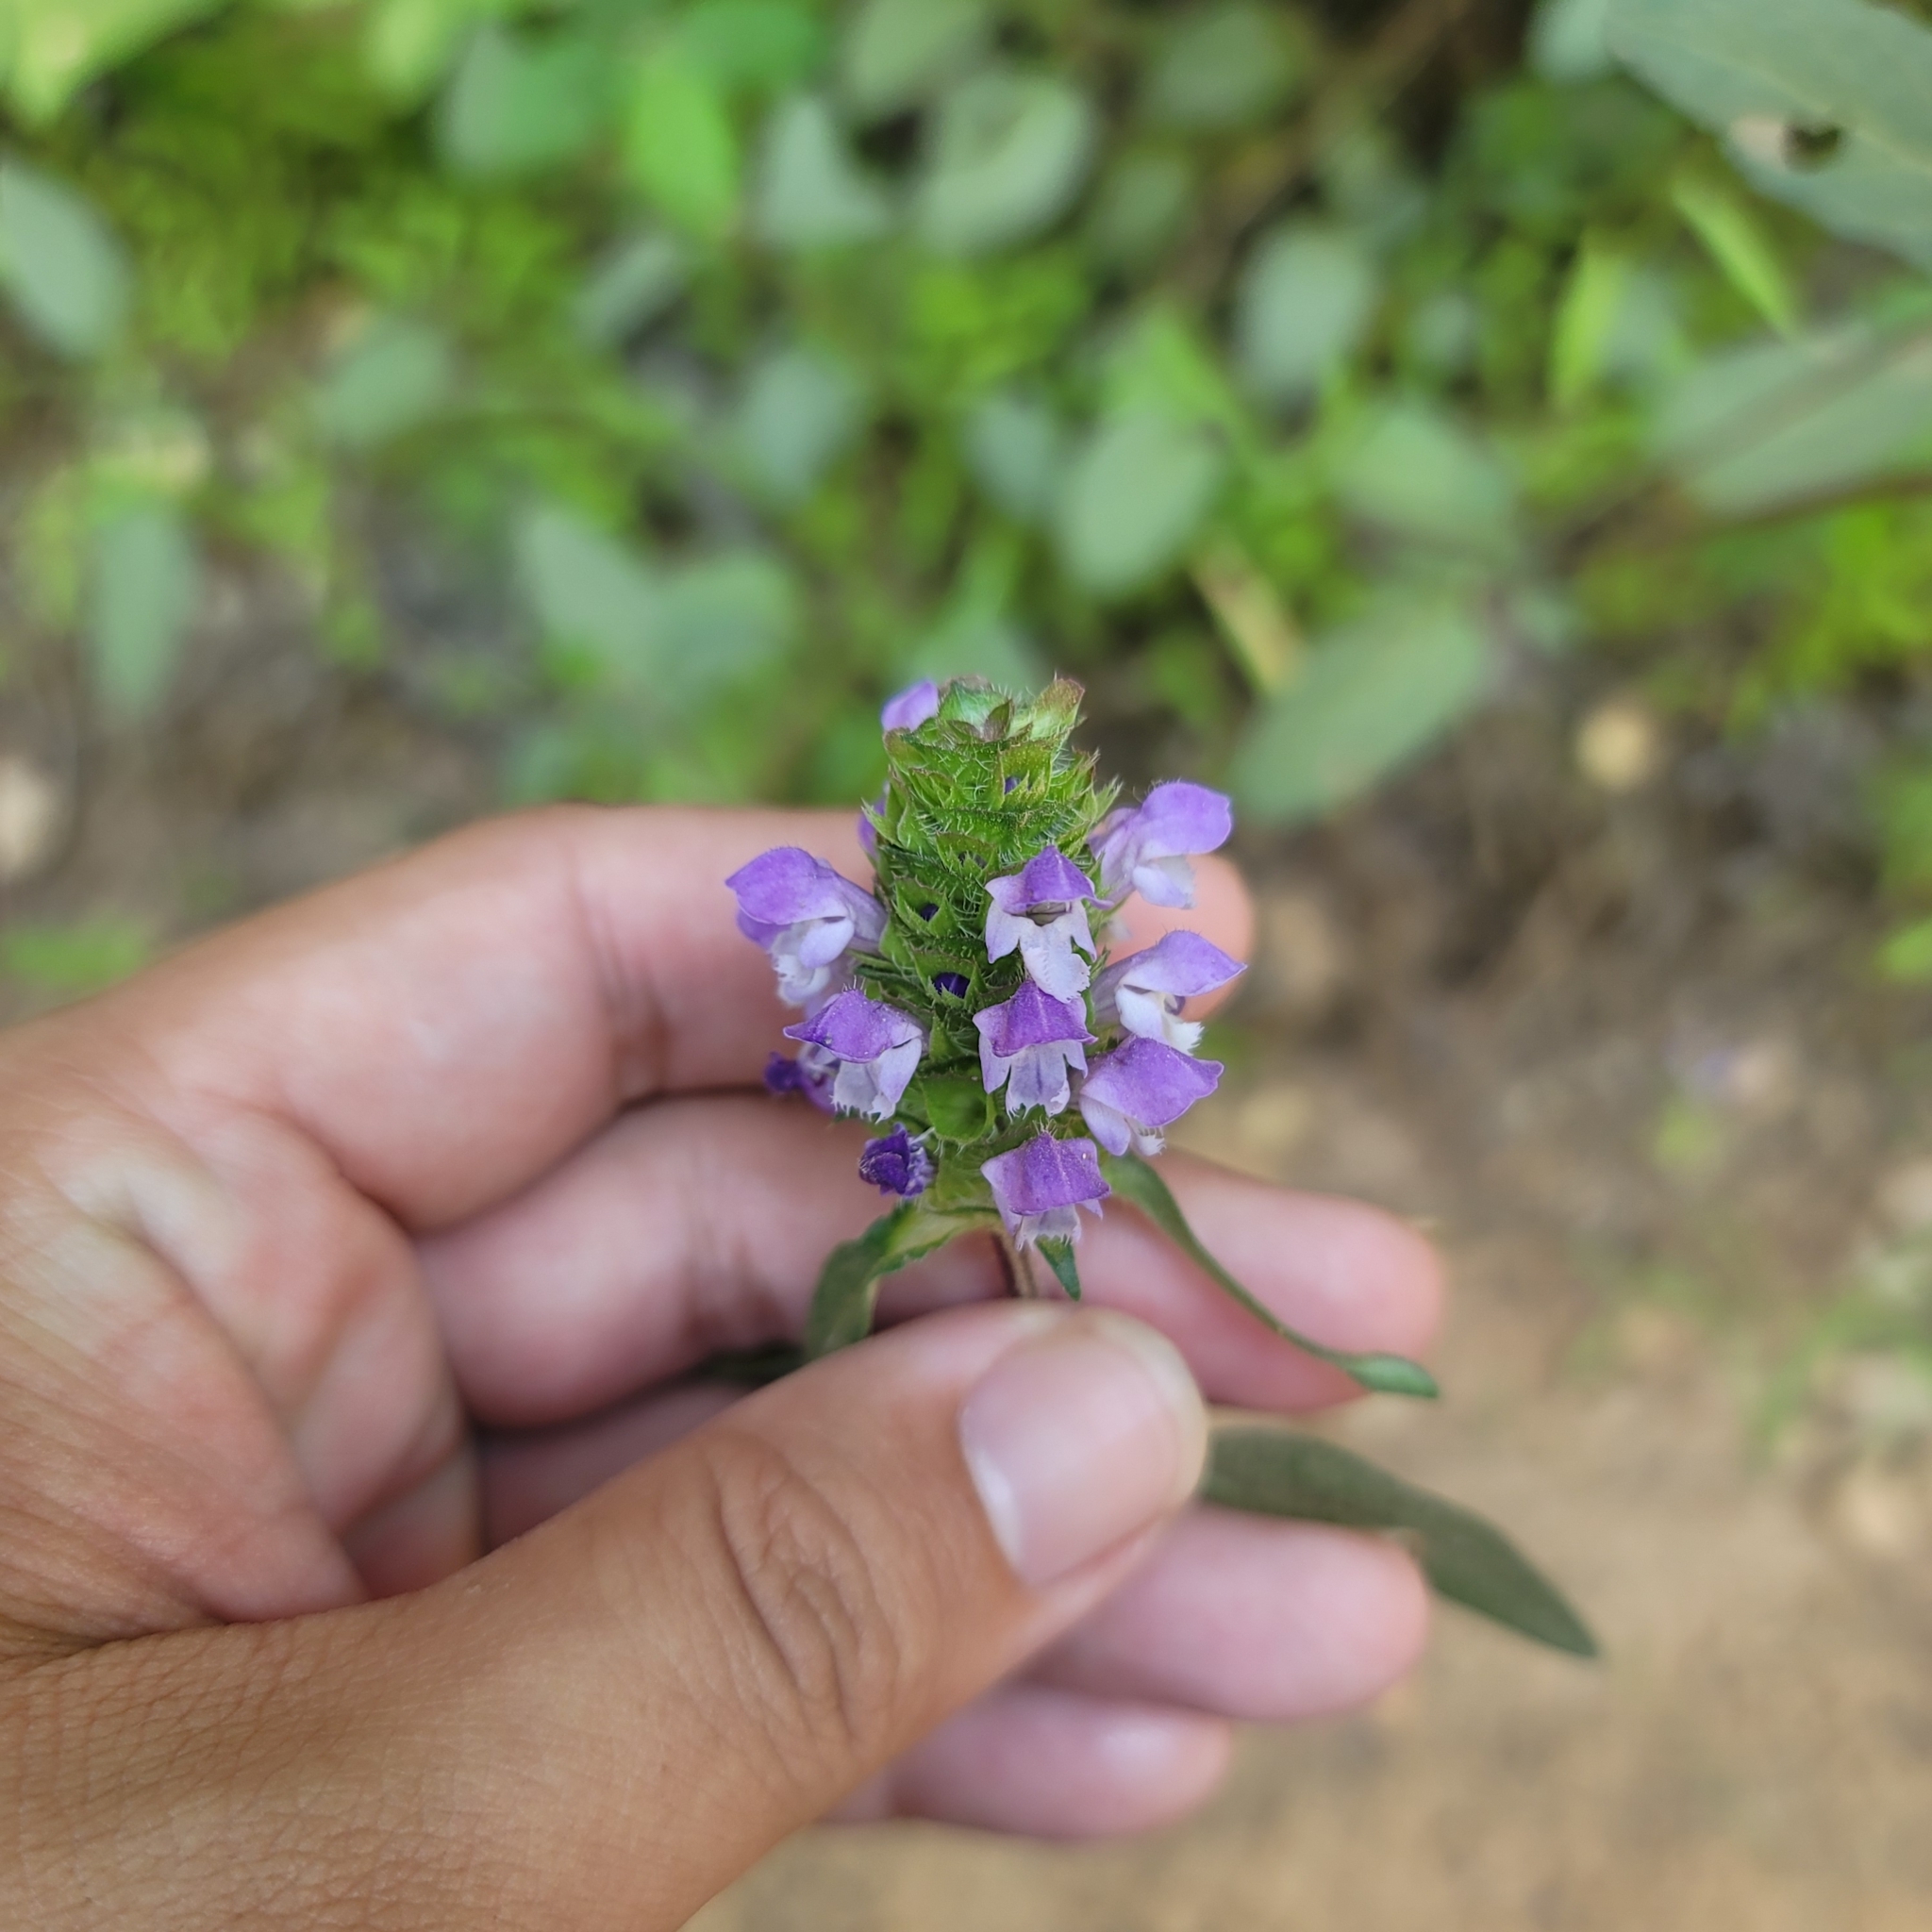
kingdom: Plantae
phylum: Tracheophyta
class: Magnoliopsida
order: Lamiales
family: Lamiaceae
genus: Prunella
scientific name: Prunella vulgaris
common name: Heal-all
